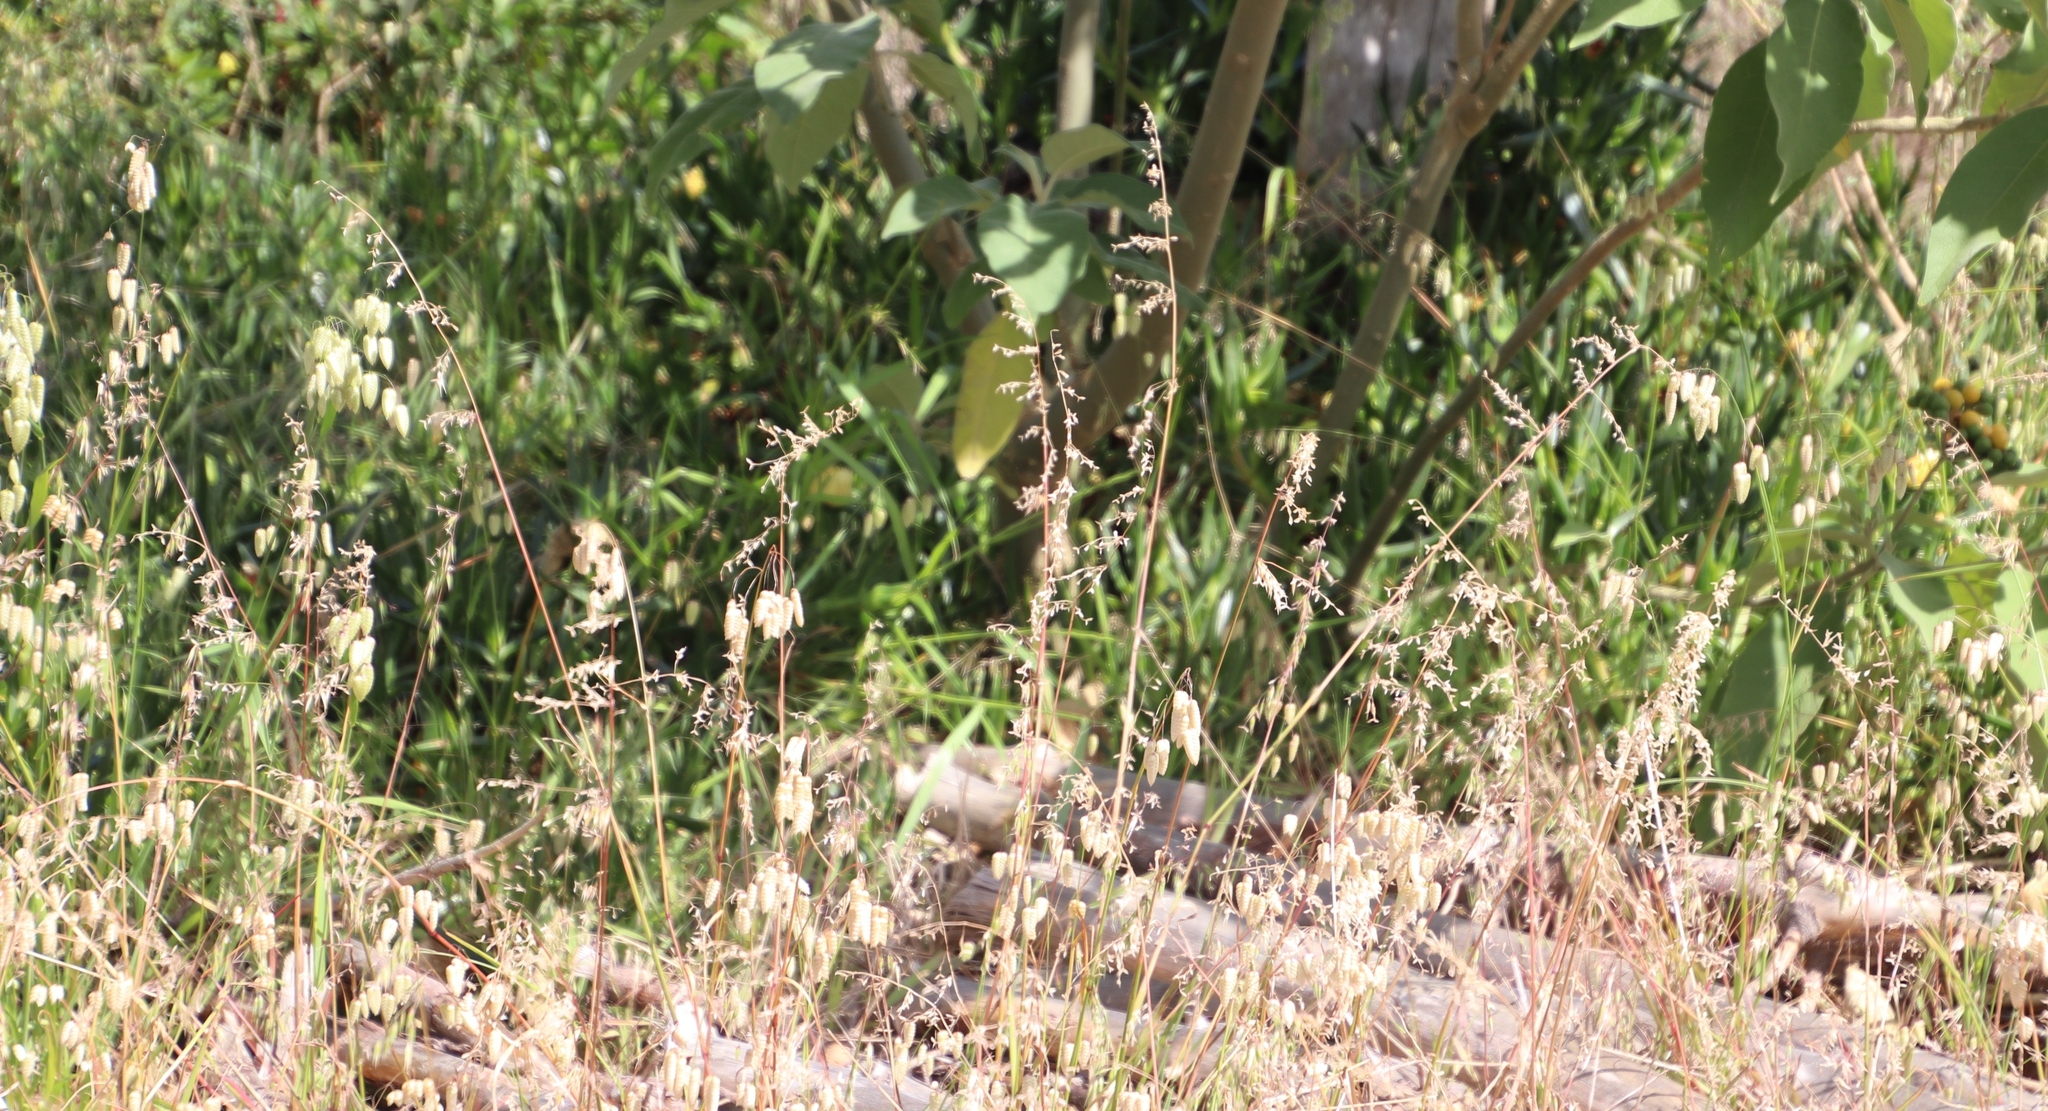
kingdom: Plantae
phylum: Tracheophyta
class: Liliopsida
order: Poales
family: Poaceae
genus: Ehrharta
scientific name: Ehrharta calycina
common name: Perennial veldtgrass
